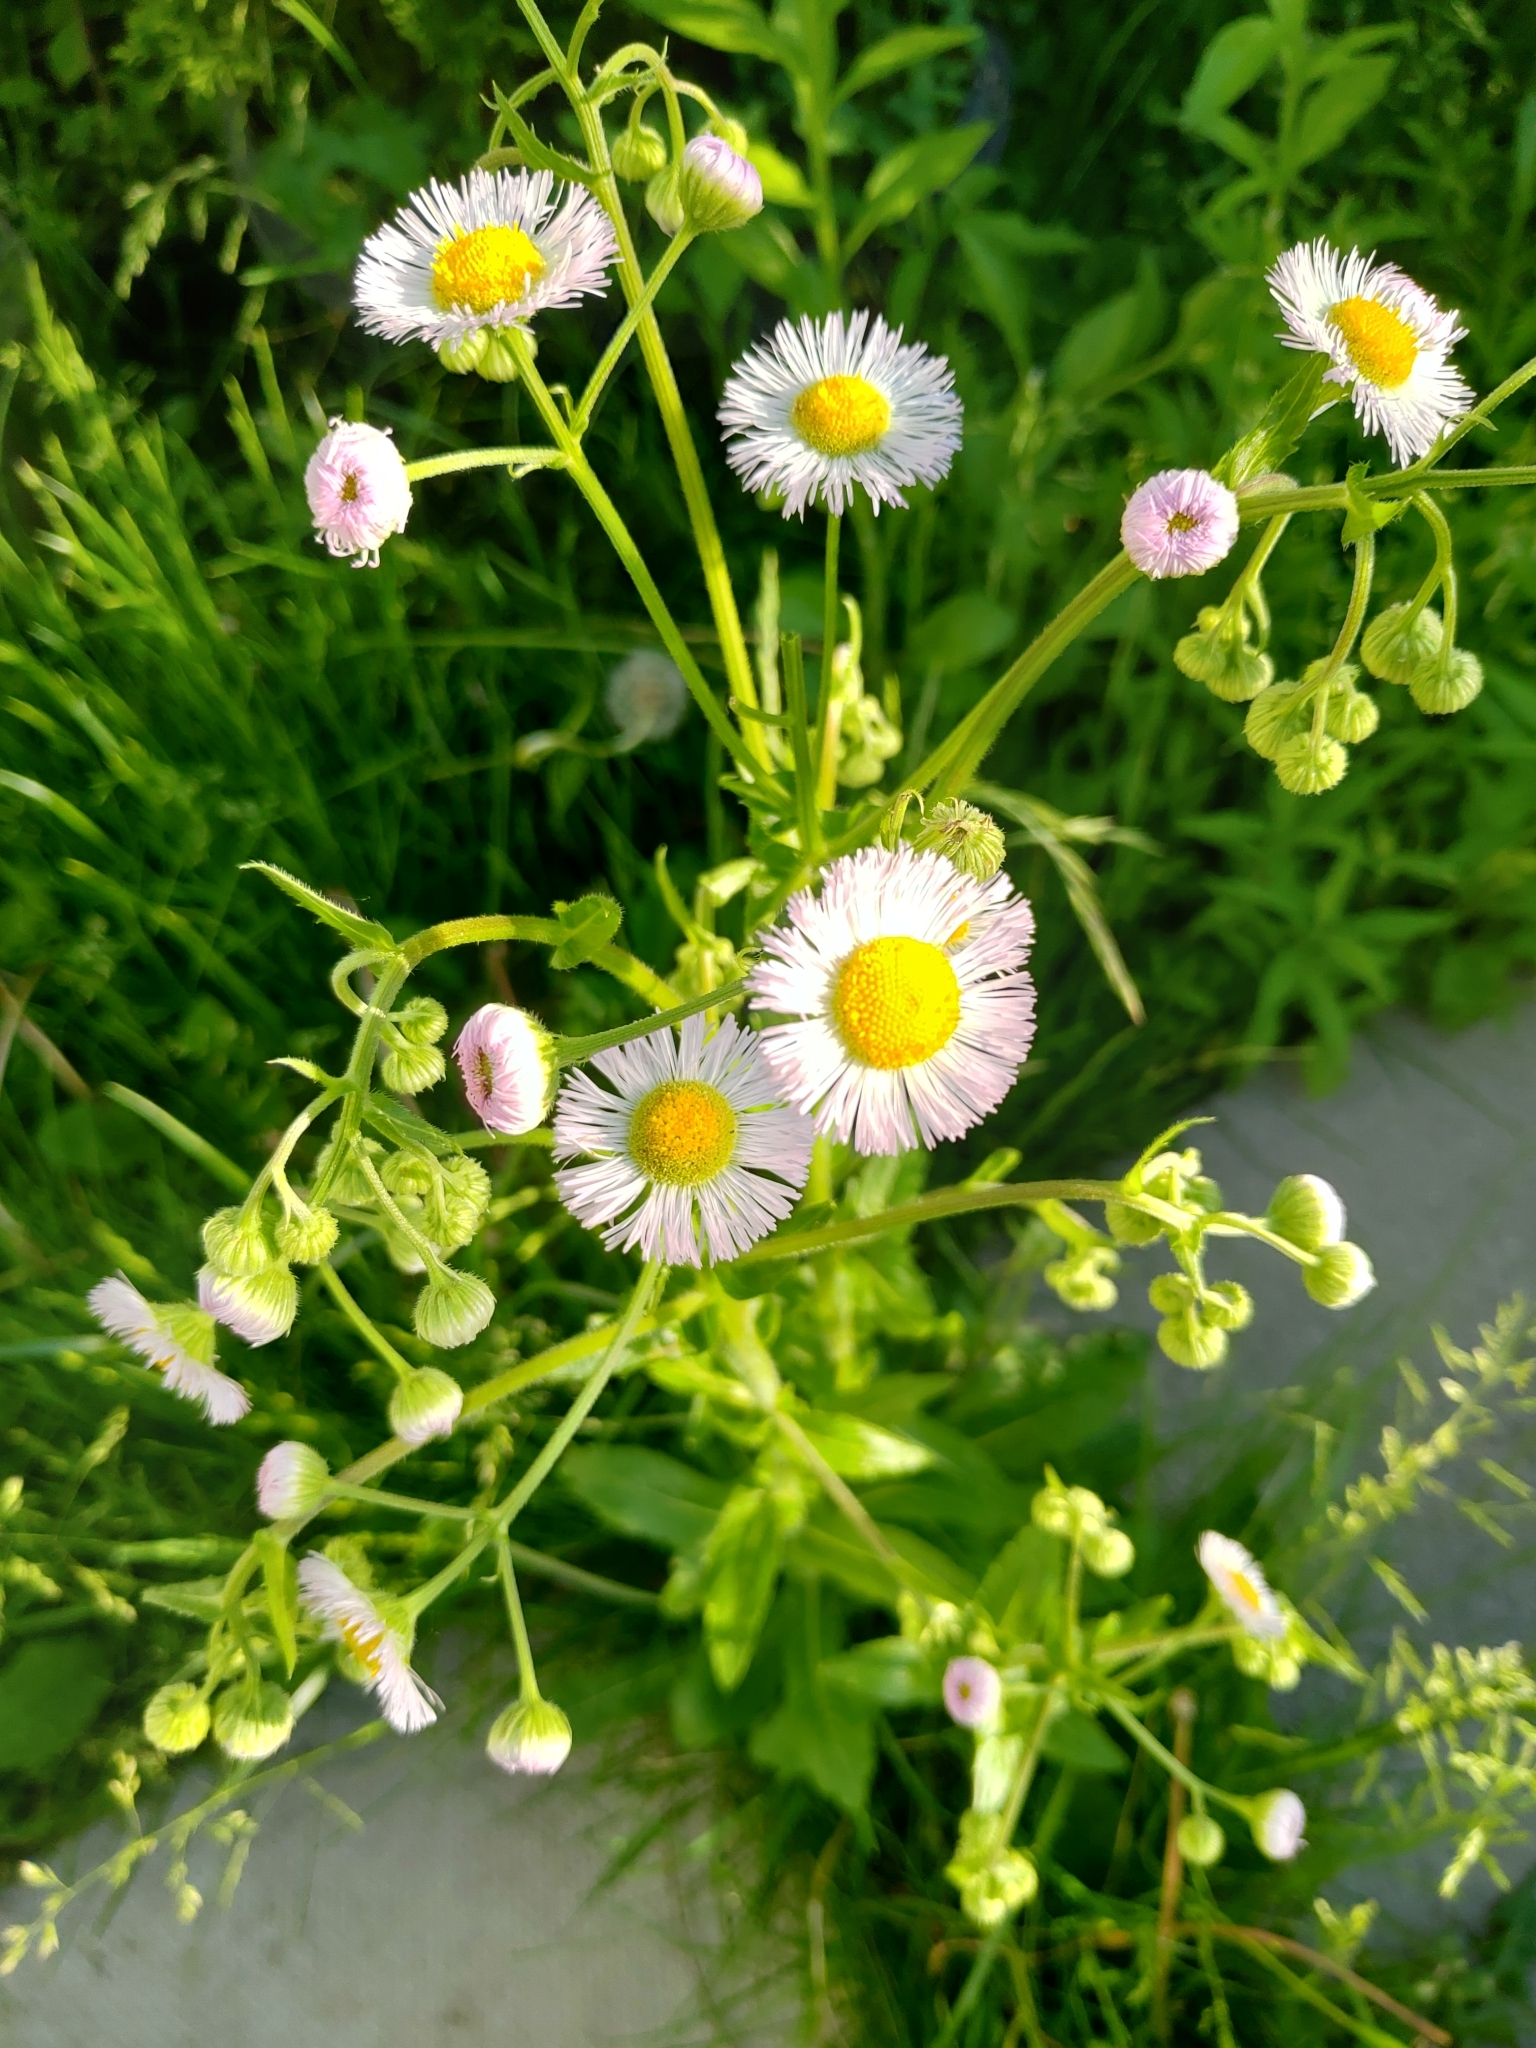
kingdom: Plantae
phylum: Tracheophyta
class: Magnoliopsida
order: Asterales
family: Asteraceae
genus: Erigeron
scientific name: Erigeron philadelphicus
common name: Robin's-plantain
